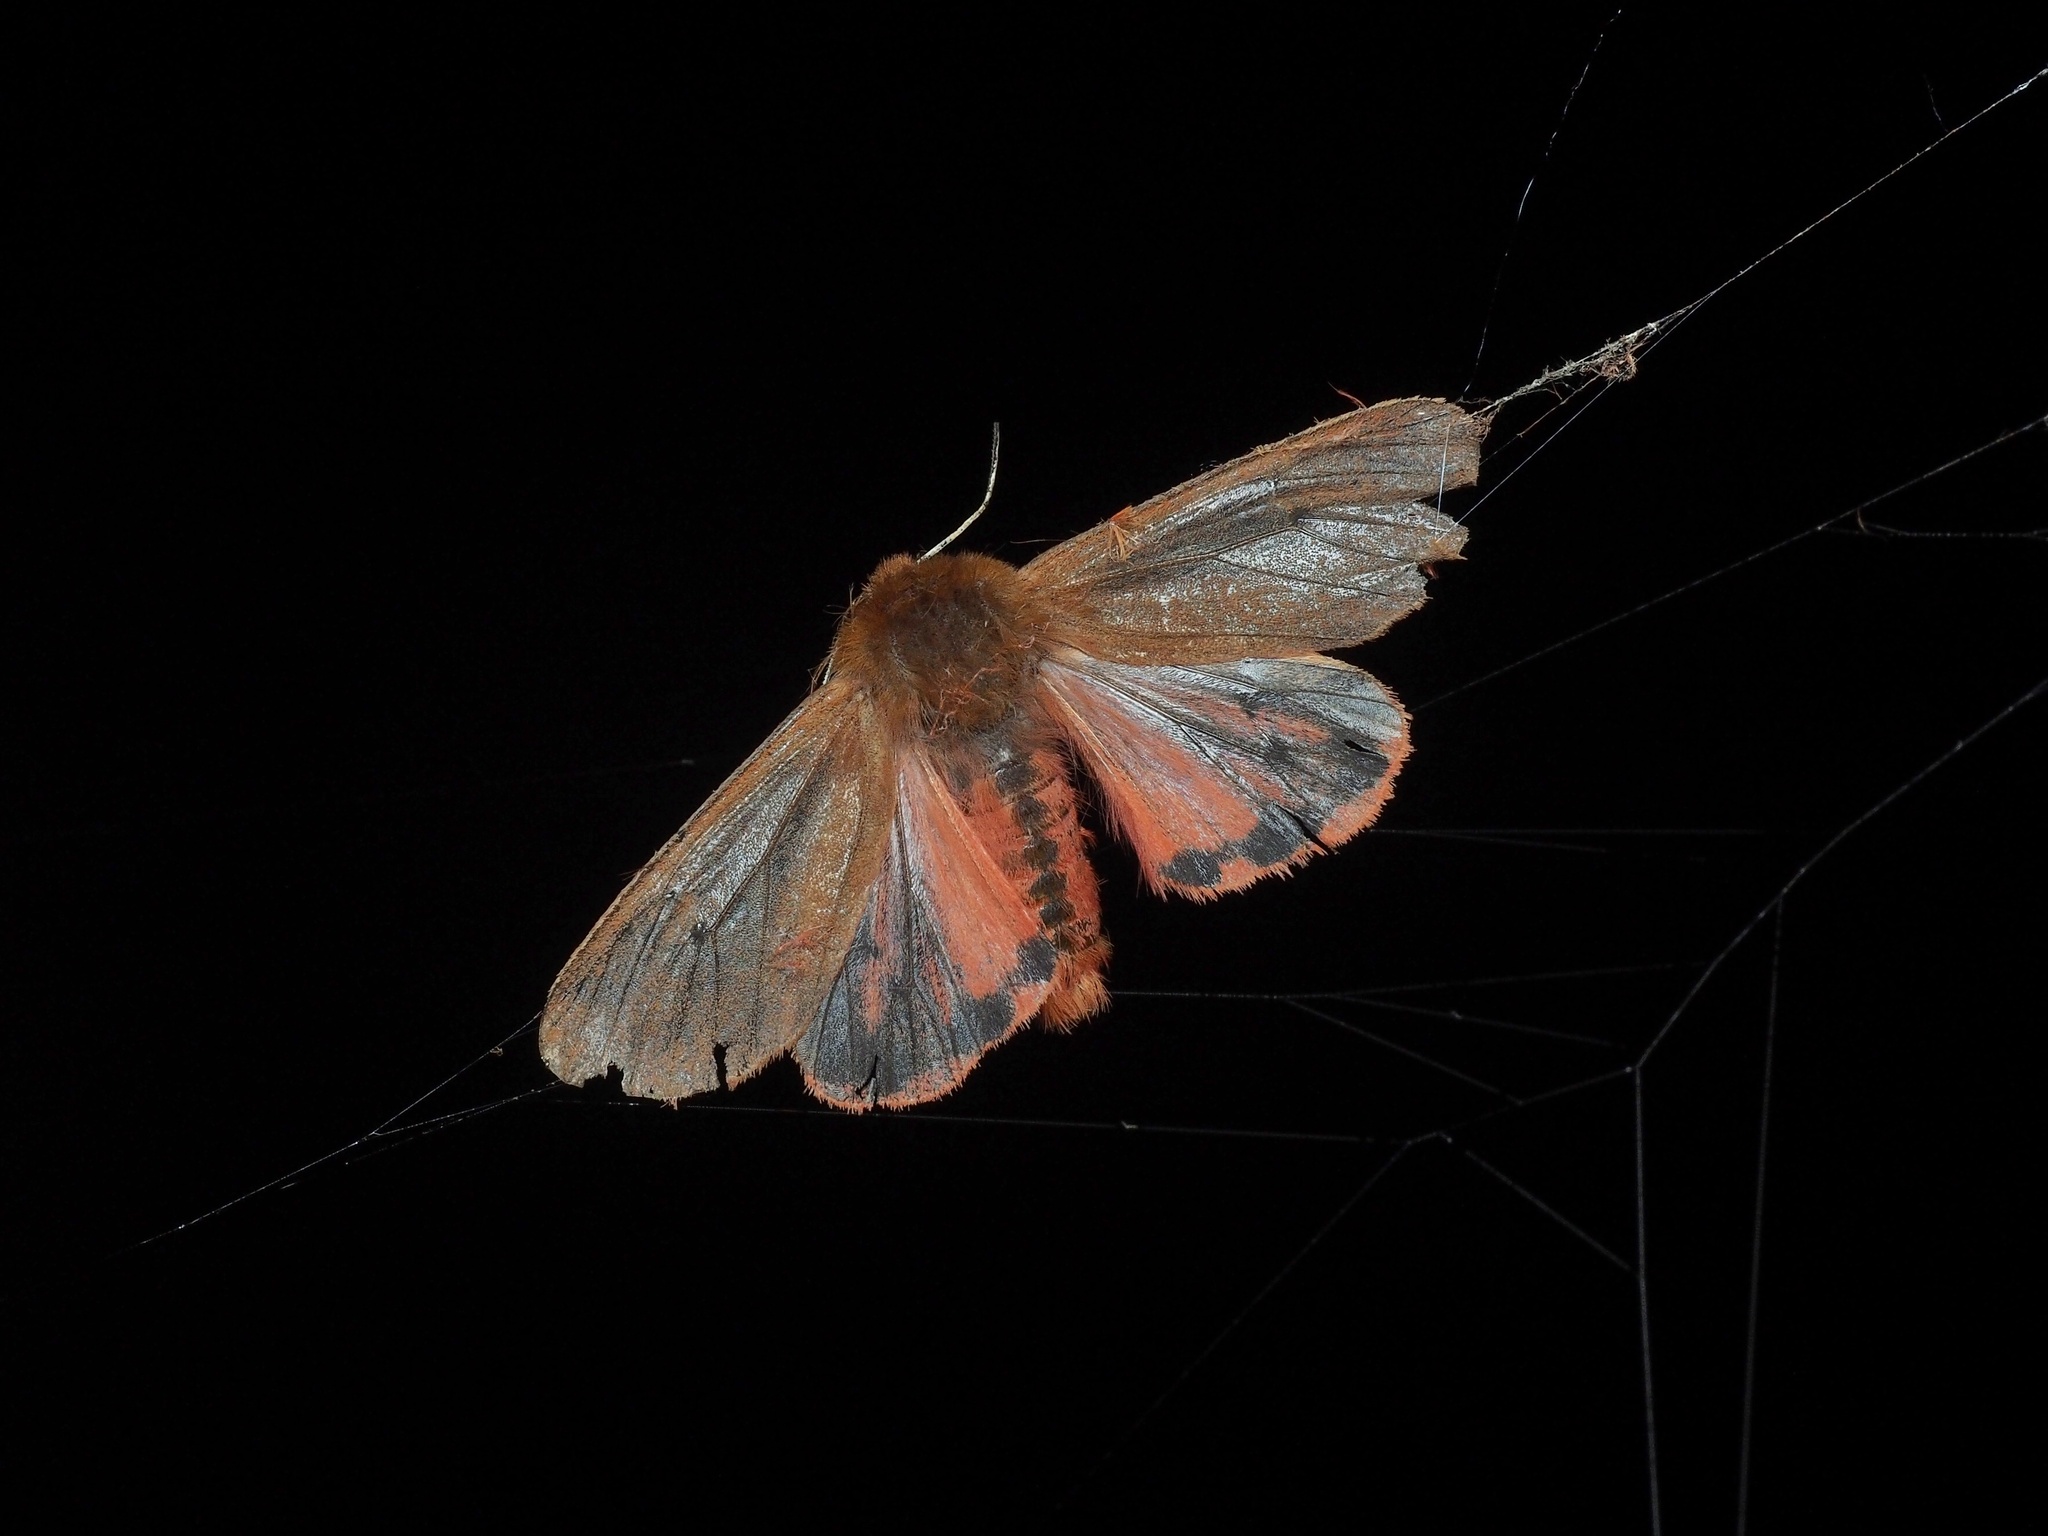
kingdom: Animalia
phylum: Arthropoda
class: Insecta
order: Lepidoptera
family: Erebidae
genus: Phragmatobia
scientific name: Phragmatobia fuliginosa
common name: Ruby tiger
